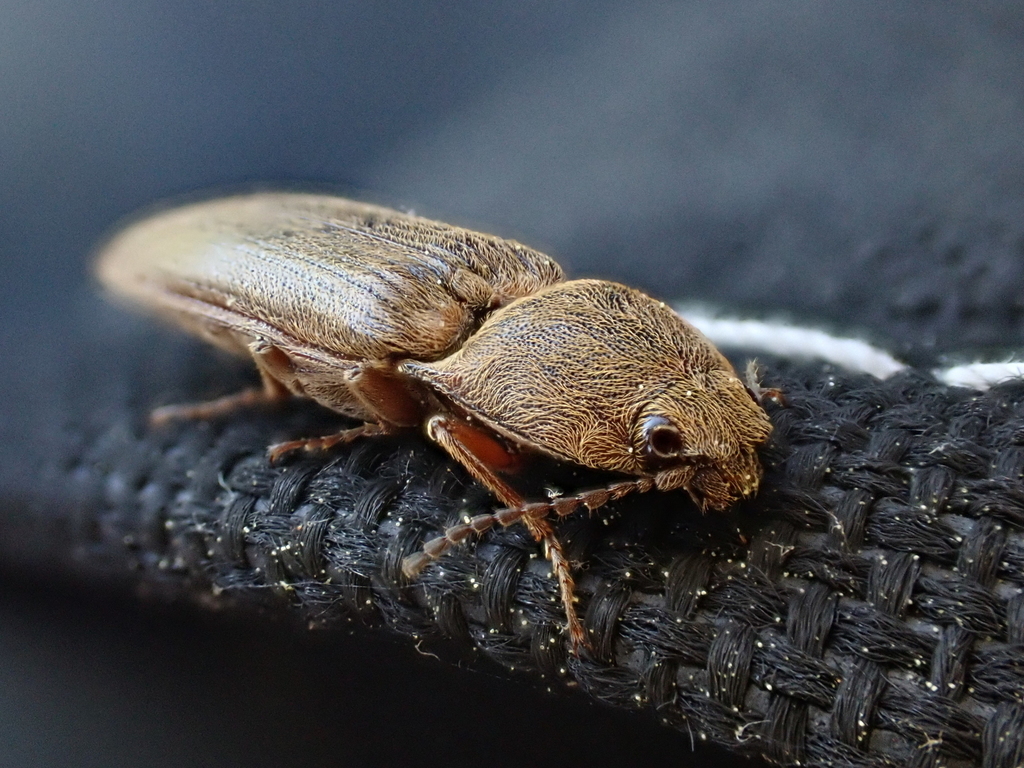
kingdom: Animalia
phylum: Arthropoda
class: Insecta
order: Coleoptera
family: Elateridae
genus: Gambrinus
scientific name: Gambrinus griseus
